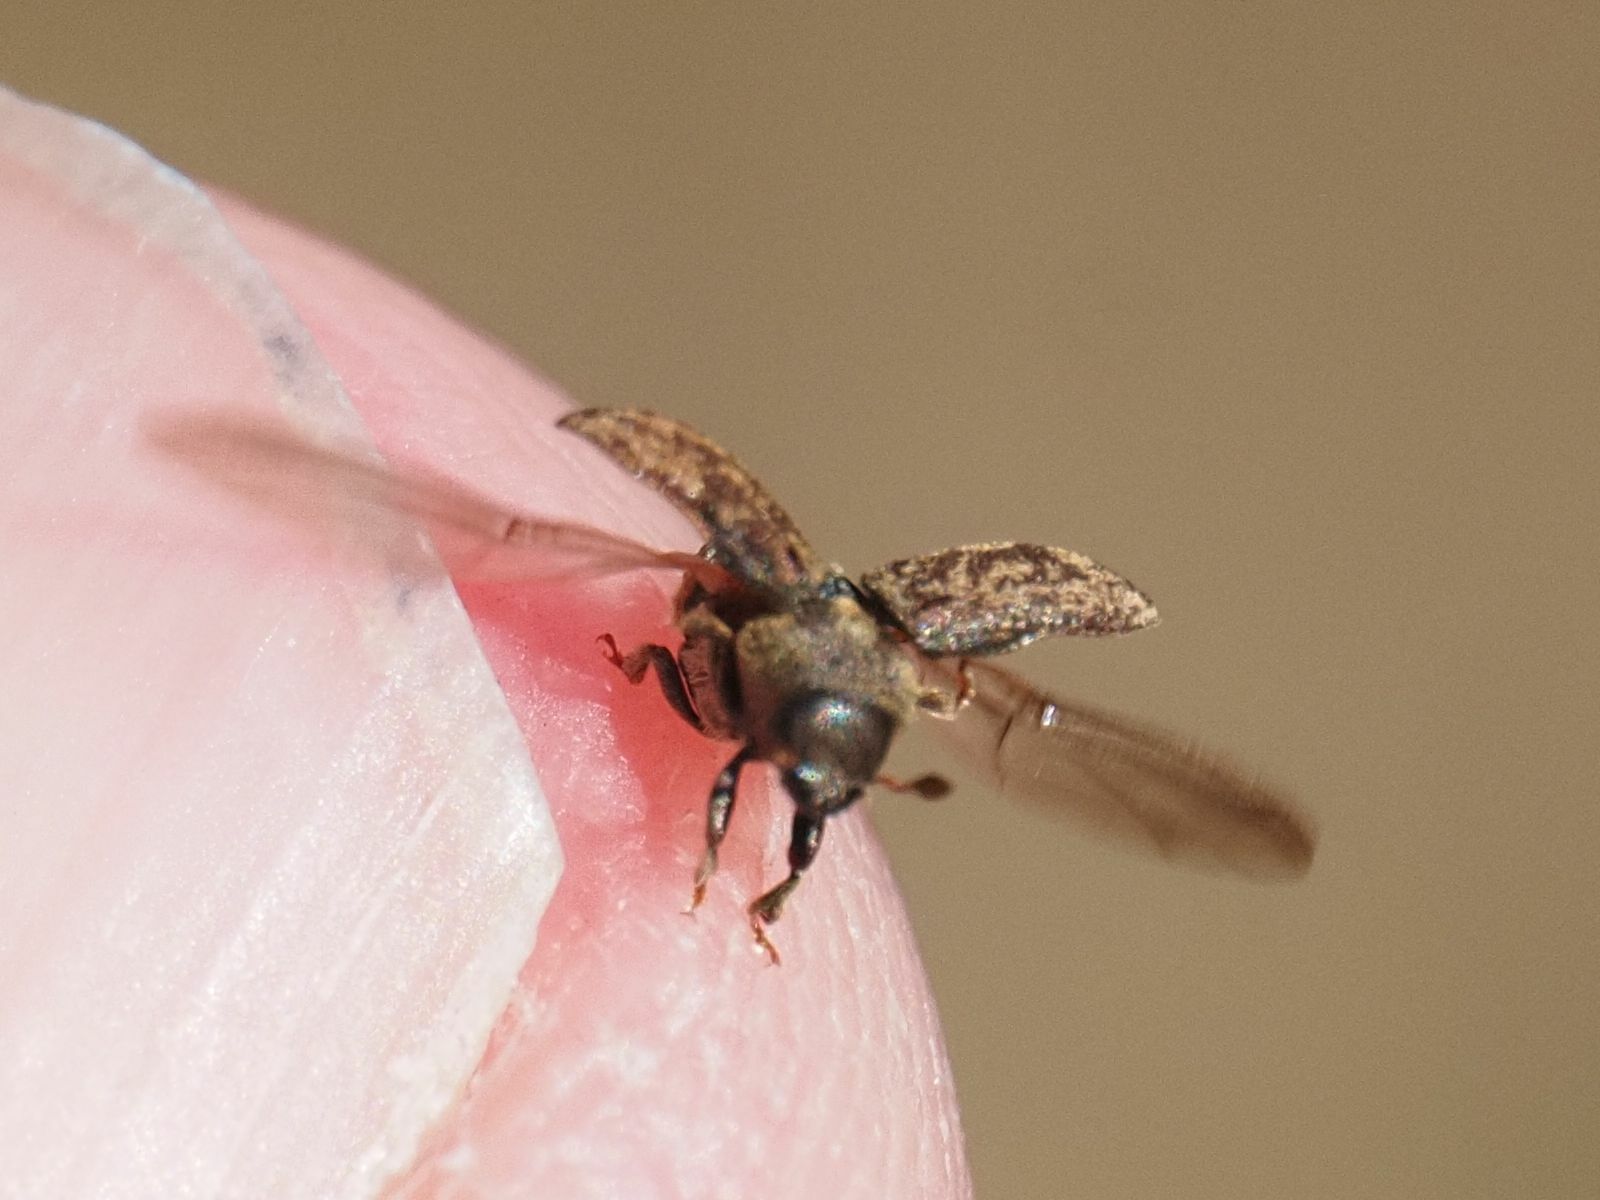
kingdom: Animalia
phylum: Arthropoda
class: Insecta
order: Coleoptera
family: Curculionidae
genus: Hylesinus
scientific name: Hylesinus varius
